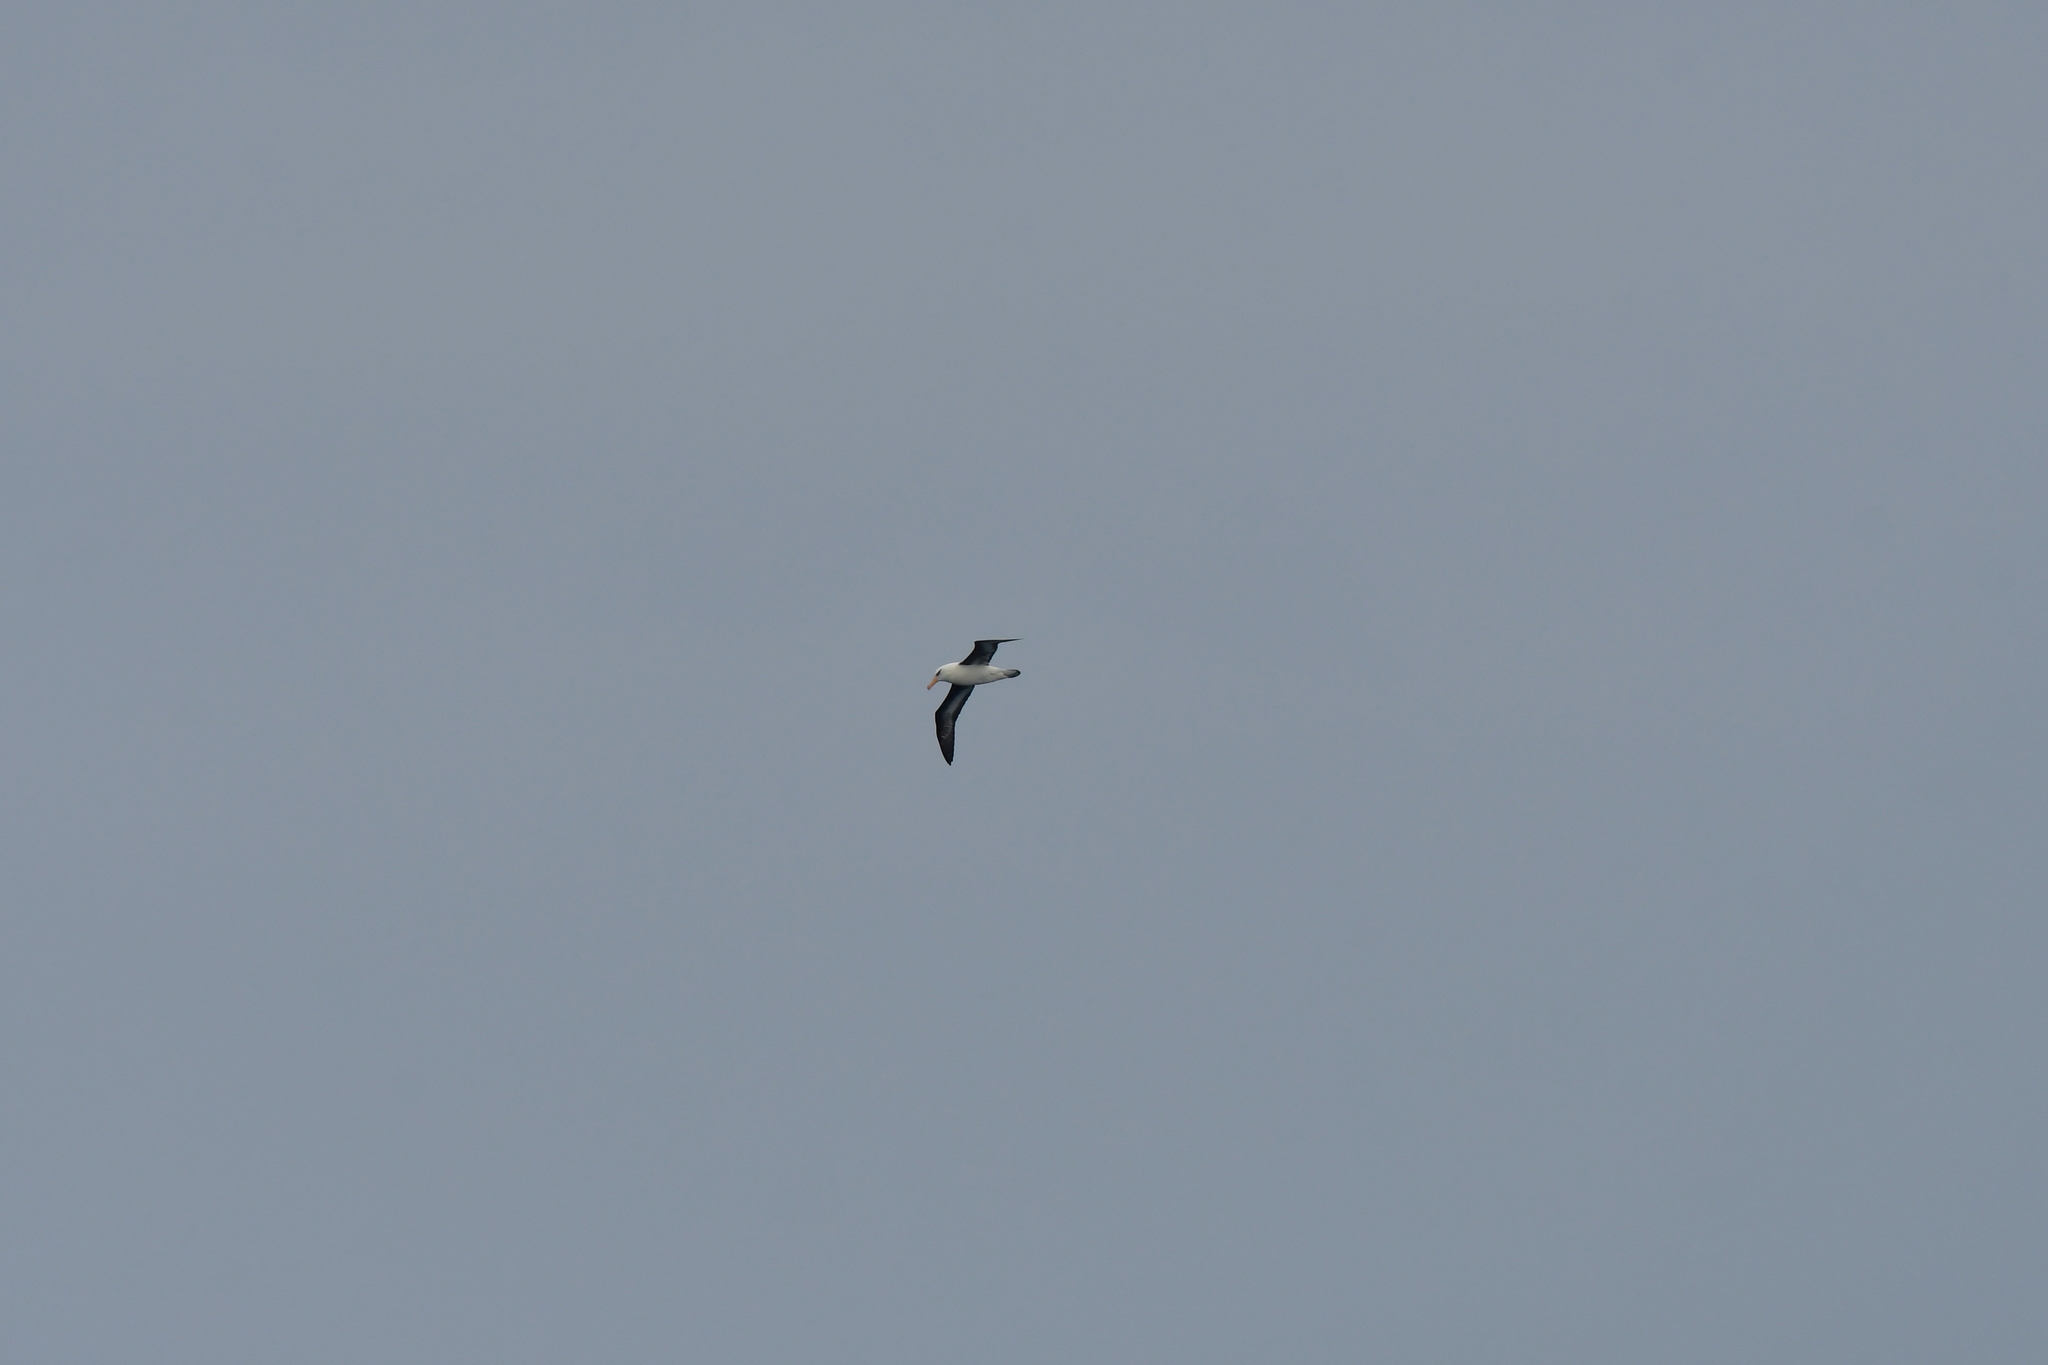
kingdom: Animalia
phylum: Chordata
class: Aves
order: Procellariiformes
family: Diomedeidae
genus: Thalassarche
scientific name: Thalassarche impavida
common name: Campbell albatross
